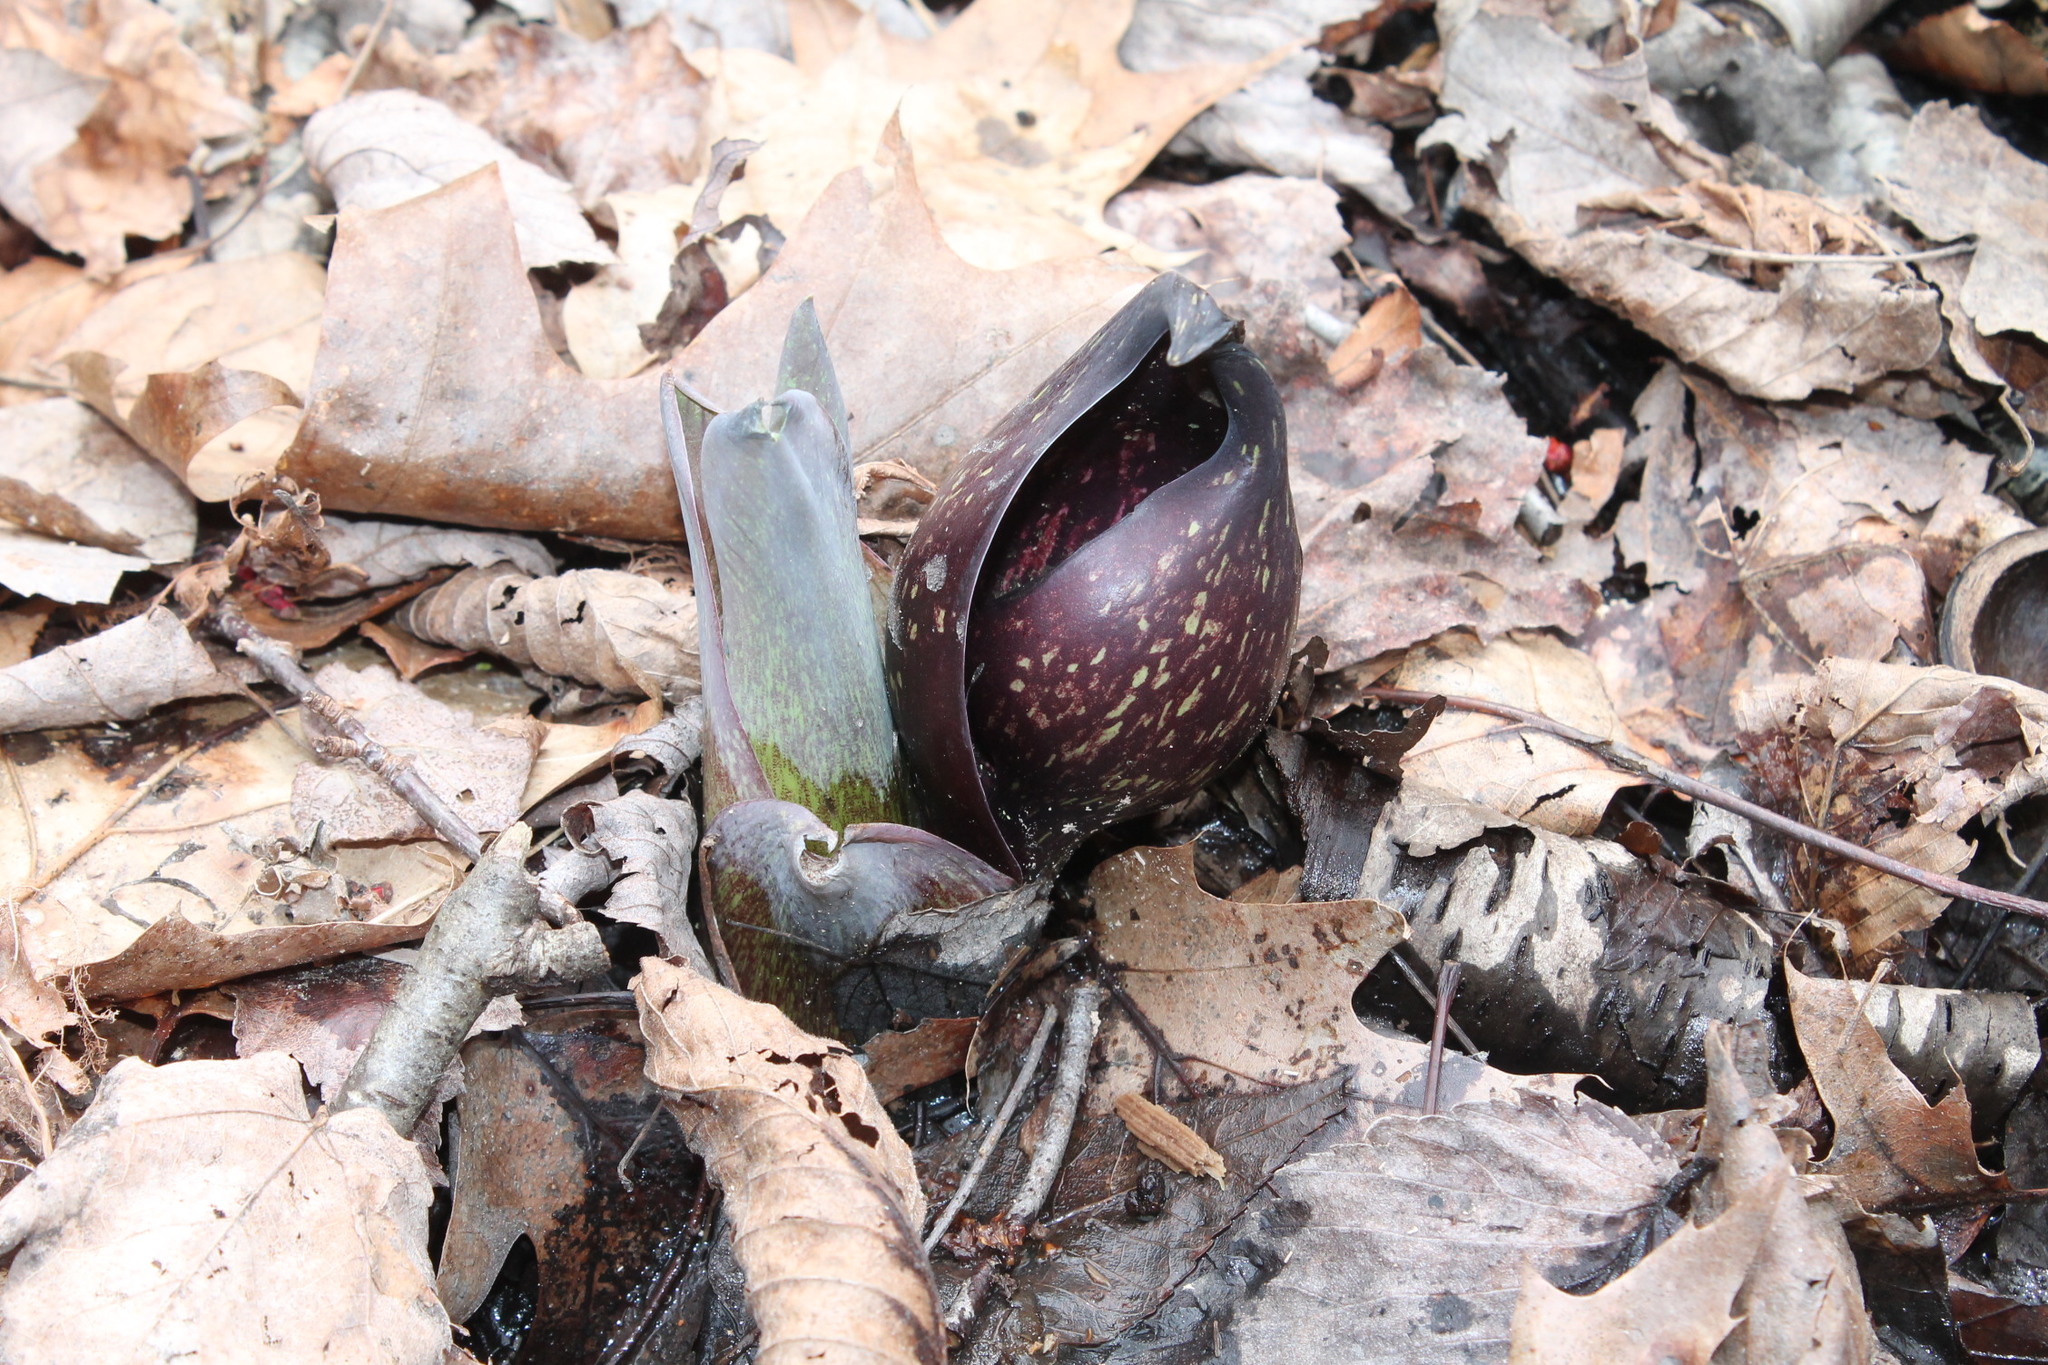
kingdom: Plantae
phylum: Tracheophyta
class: Liliopsida
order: Alismatales
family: Araceae
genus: Symplocarpus
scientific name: Symplocarpus foetidus
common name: Eastern skunk cabbage
